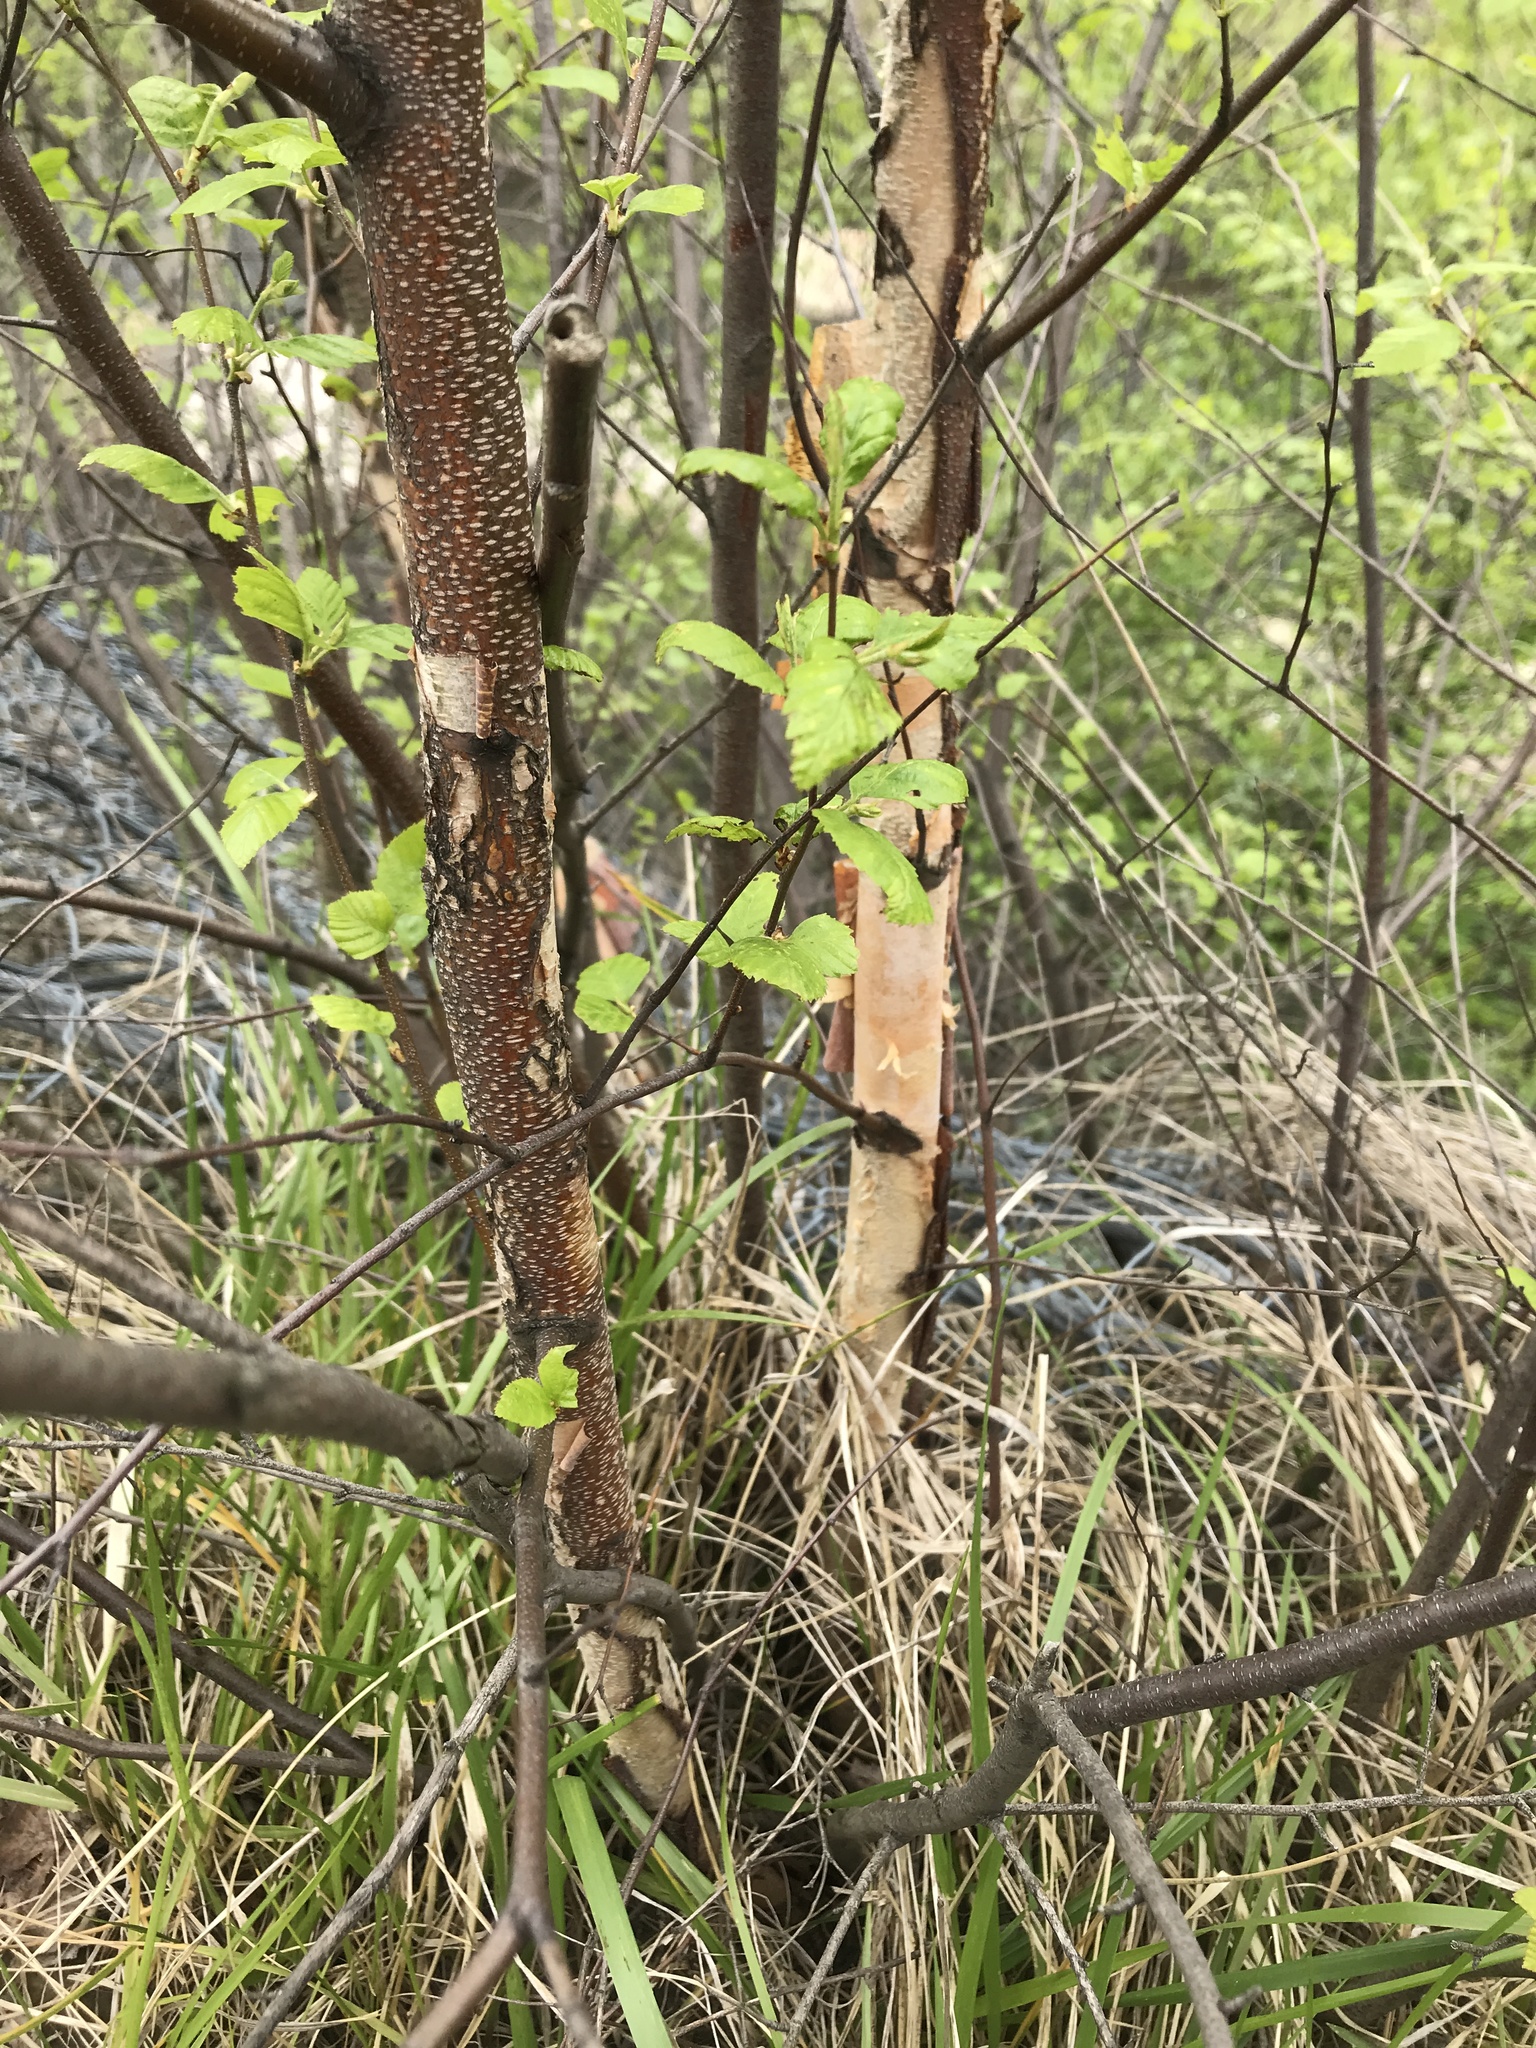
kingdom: Plantae
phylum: Tracheophyta
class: Magnoliopsida
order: Fagales
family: Betulaceae
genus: Betula
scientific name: Betula nigra
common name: Black birch
